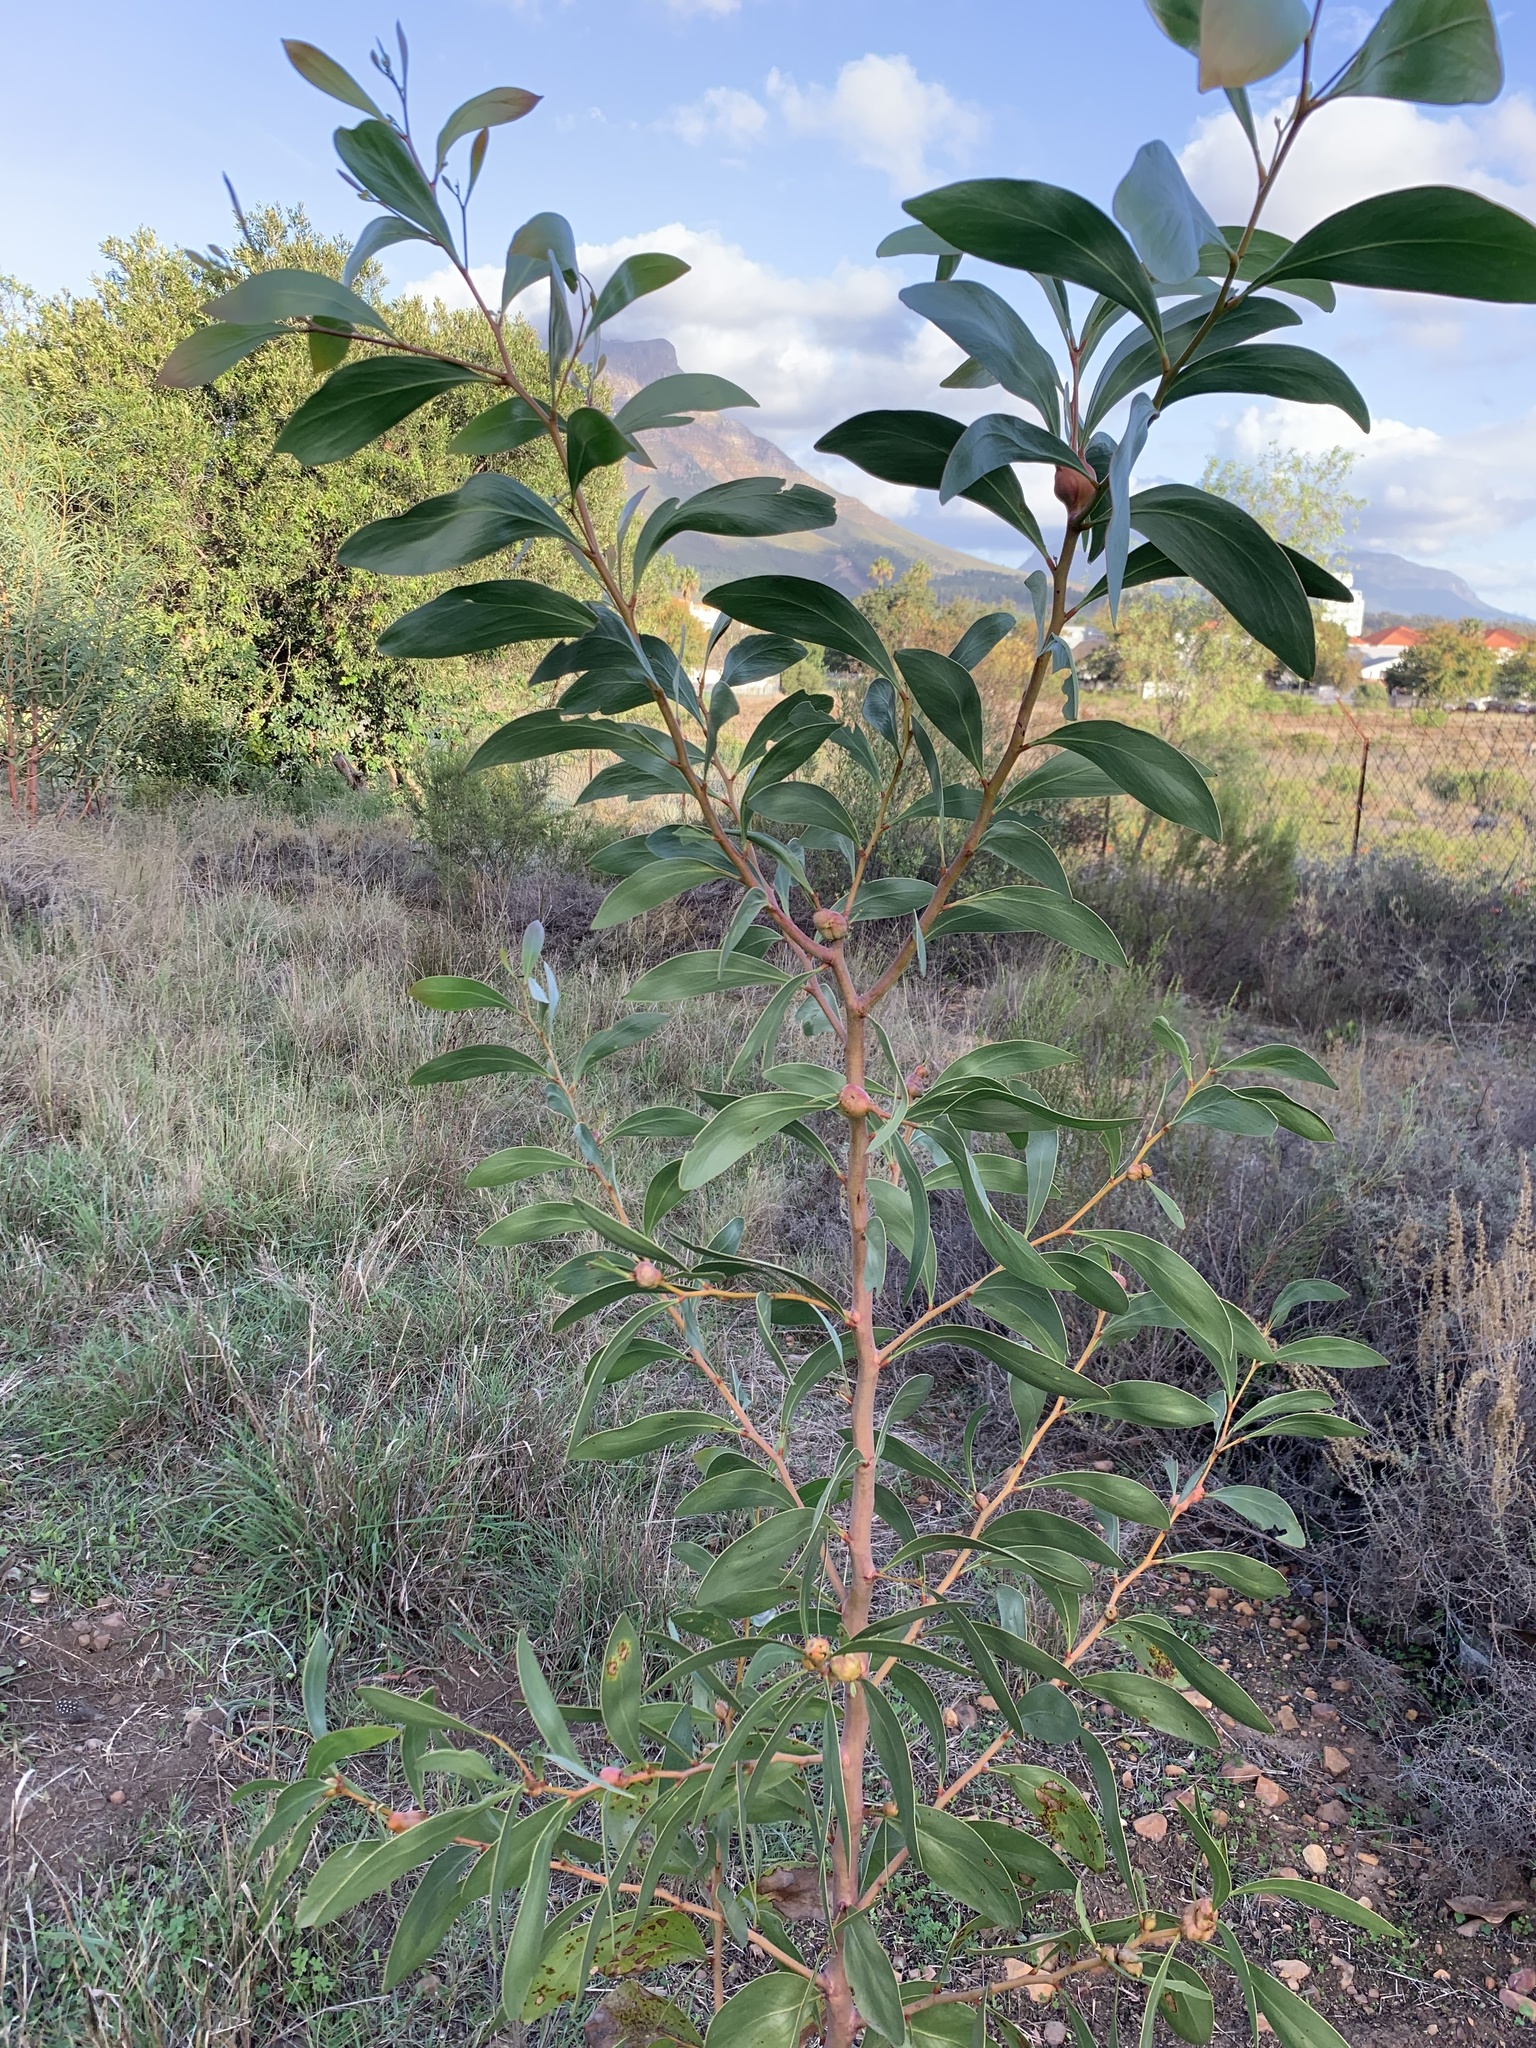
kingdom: Plantae
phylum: Tracheophyta
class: Magnoliopsida
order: Fabales
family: Fabaceae
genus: Acacia
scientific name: Acacia pycnantha
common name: Golden wattle
